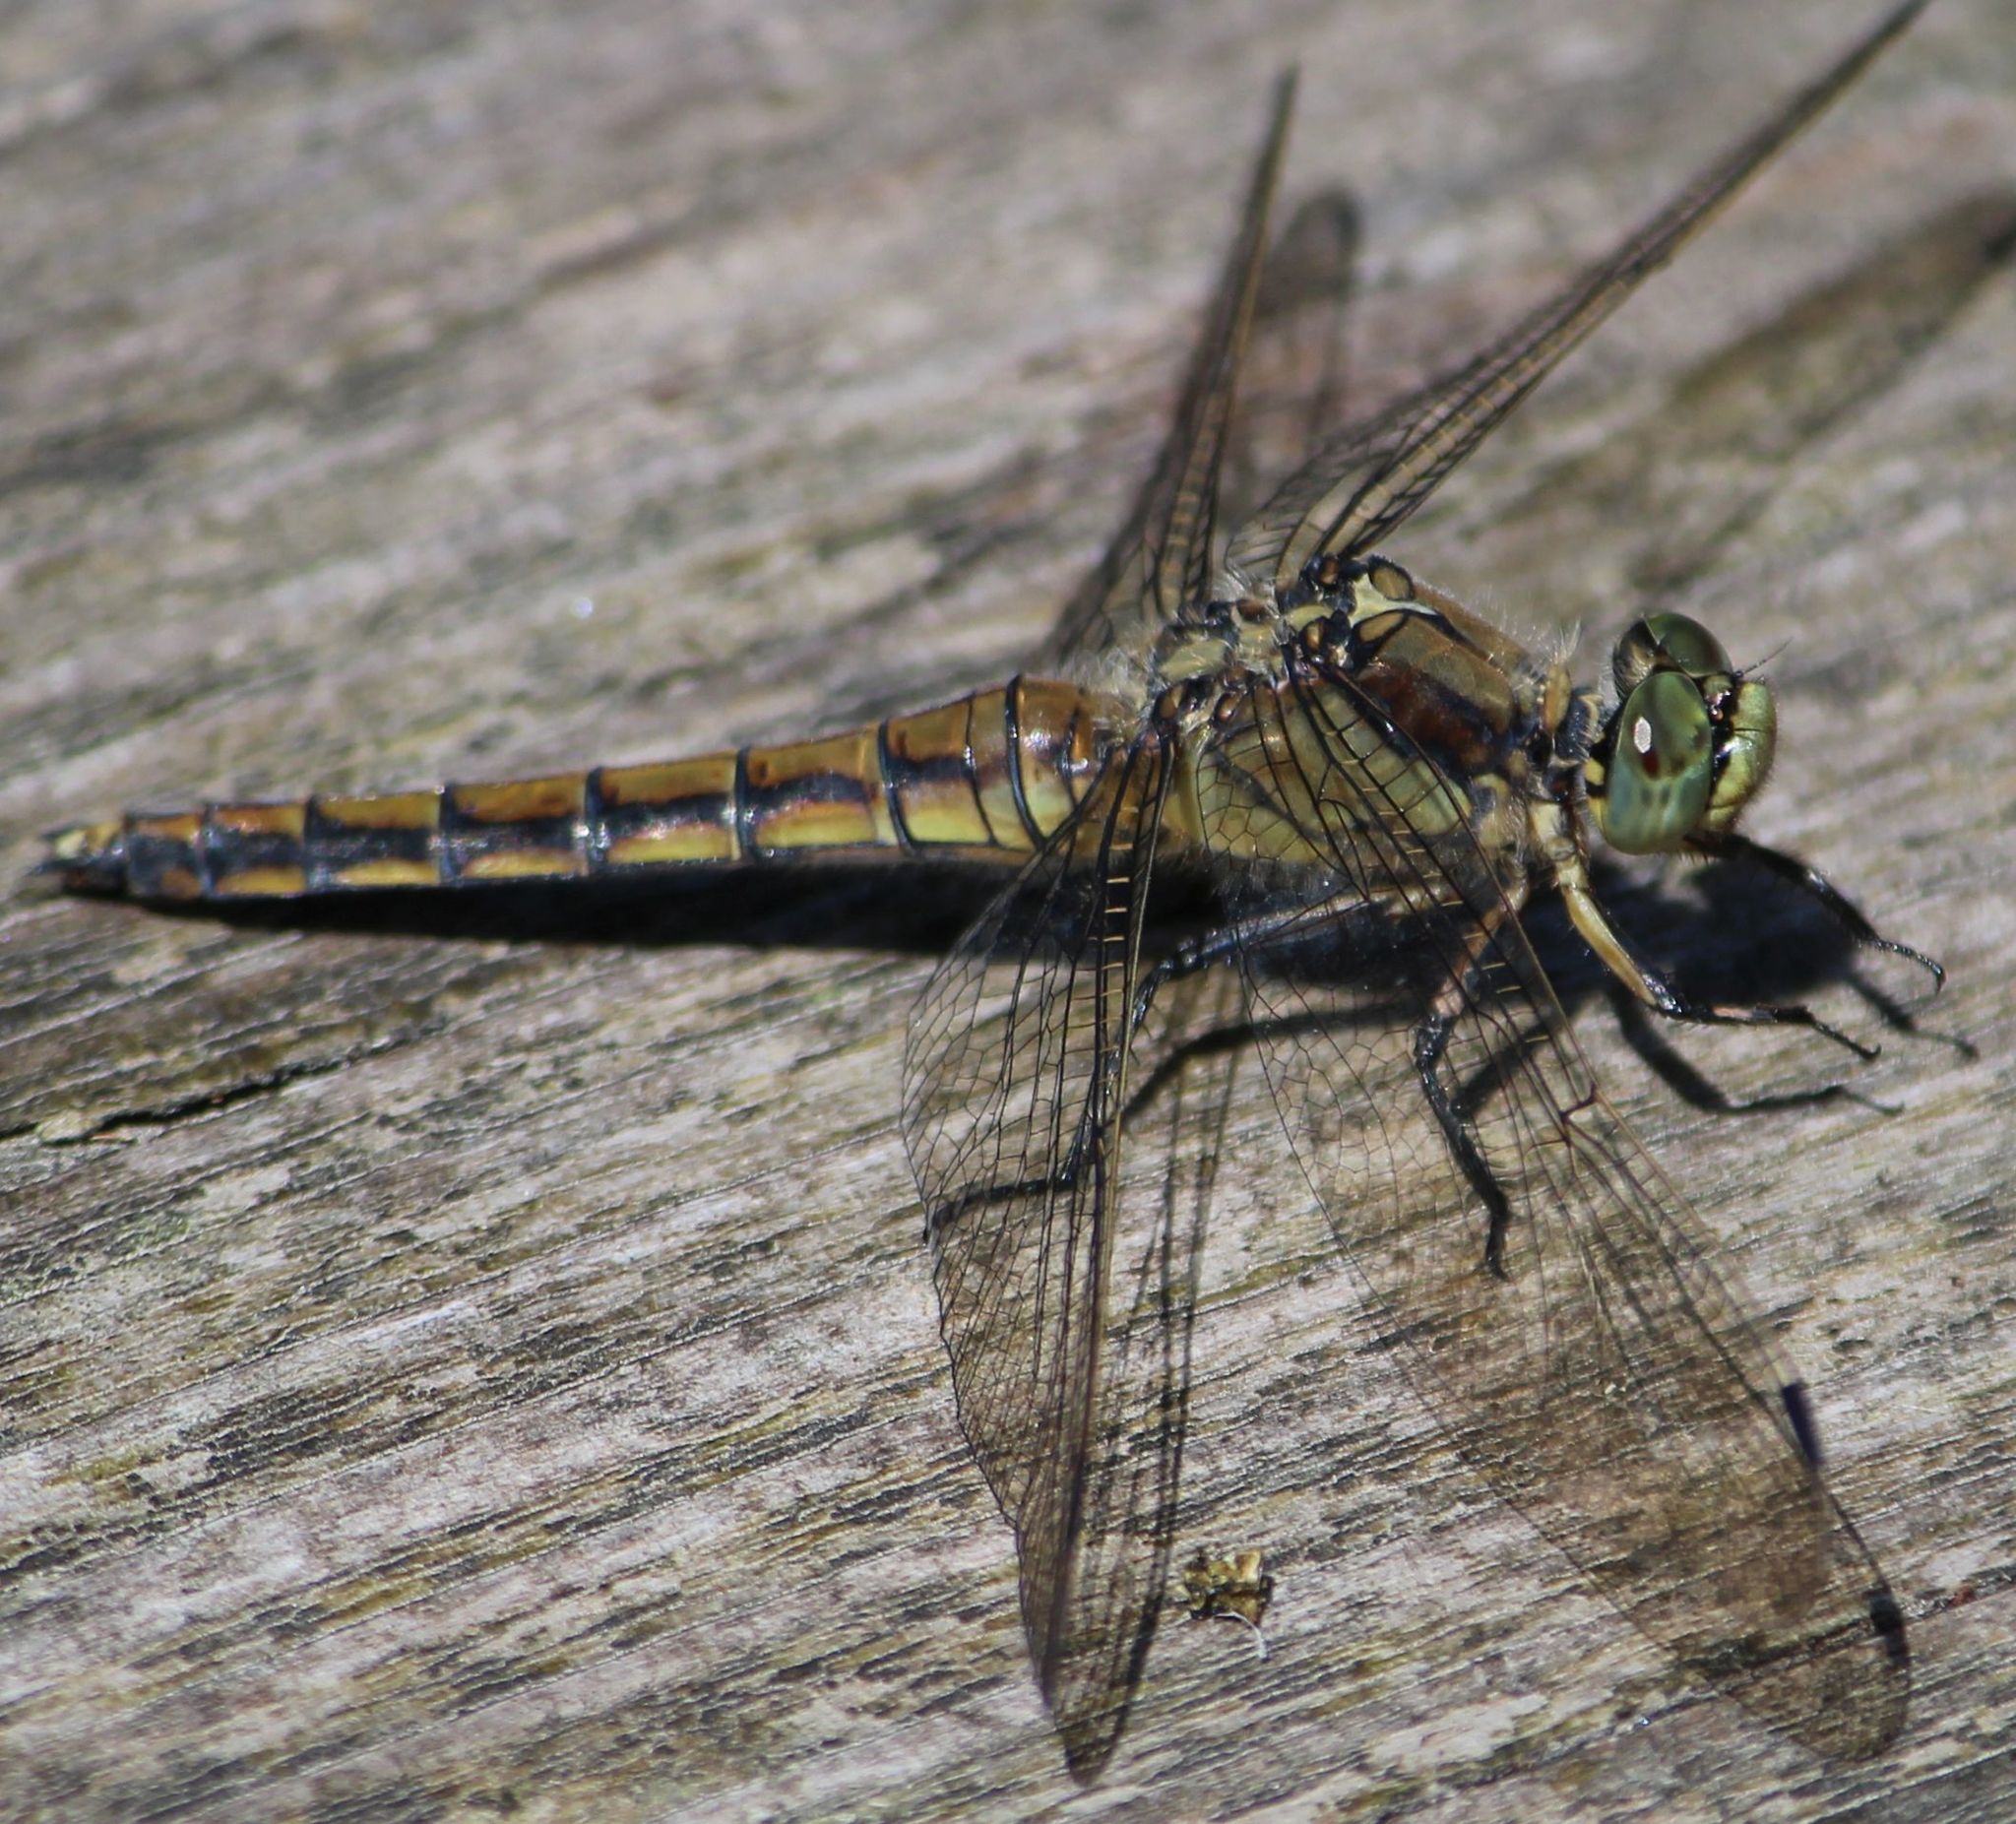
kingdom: Animalia
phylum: Arthropoda
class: Insecta
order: Odonata
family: Libellulidae
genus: Orthetrum
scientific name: Orthetrum cancellatum
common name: Black-tailed skimmer
